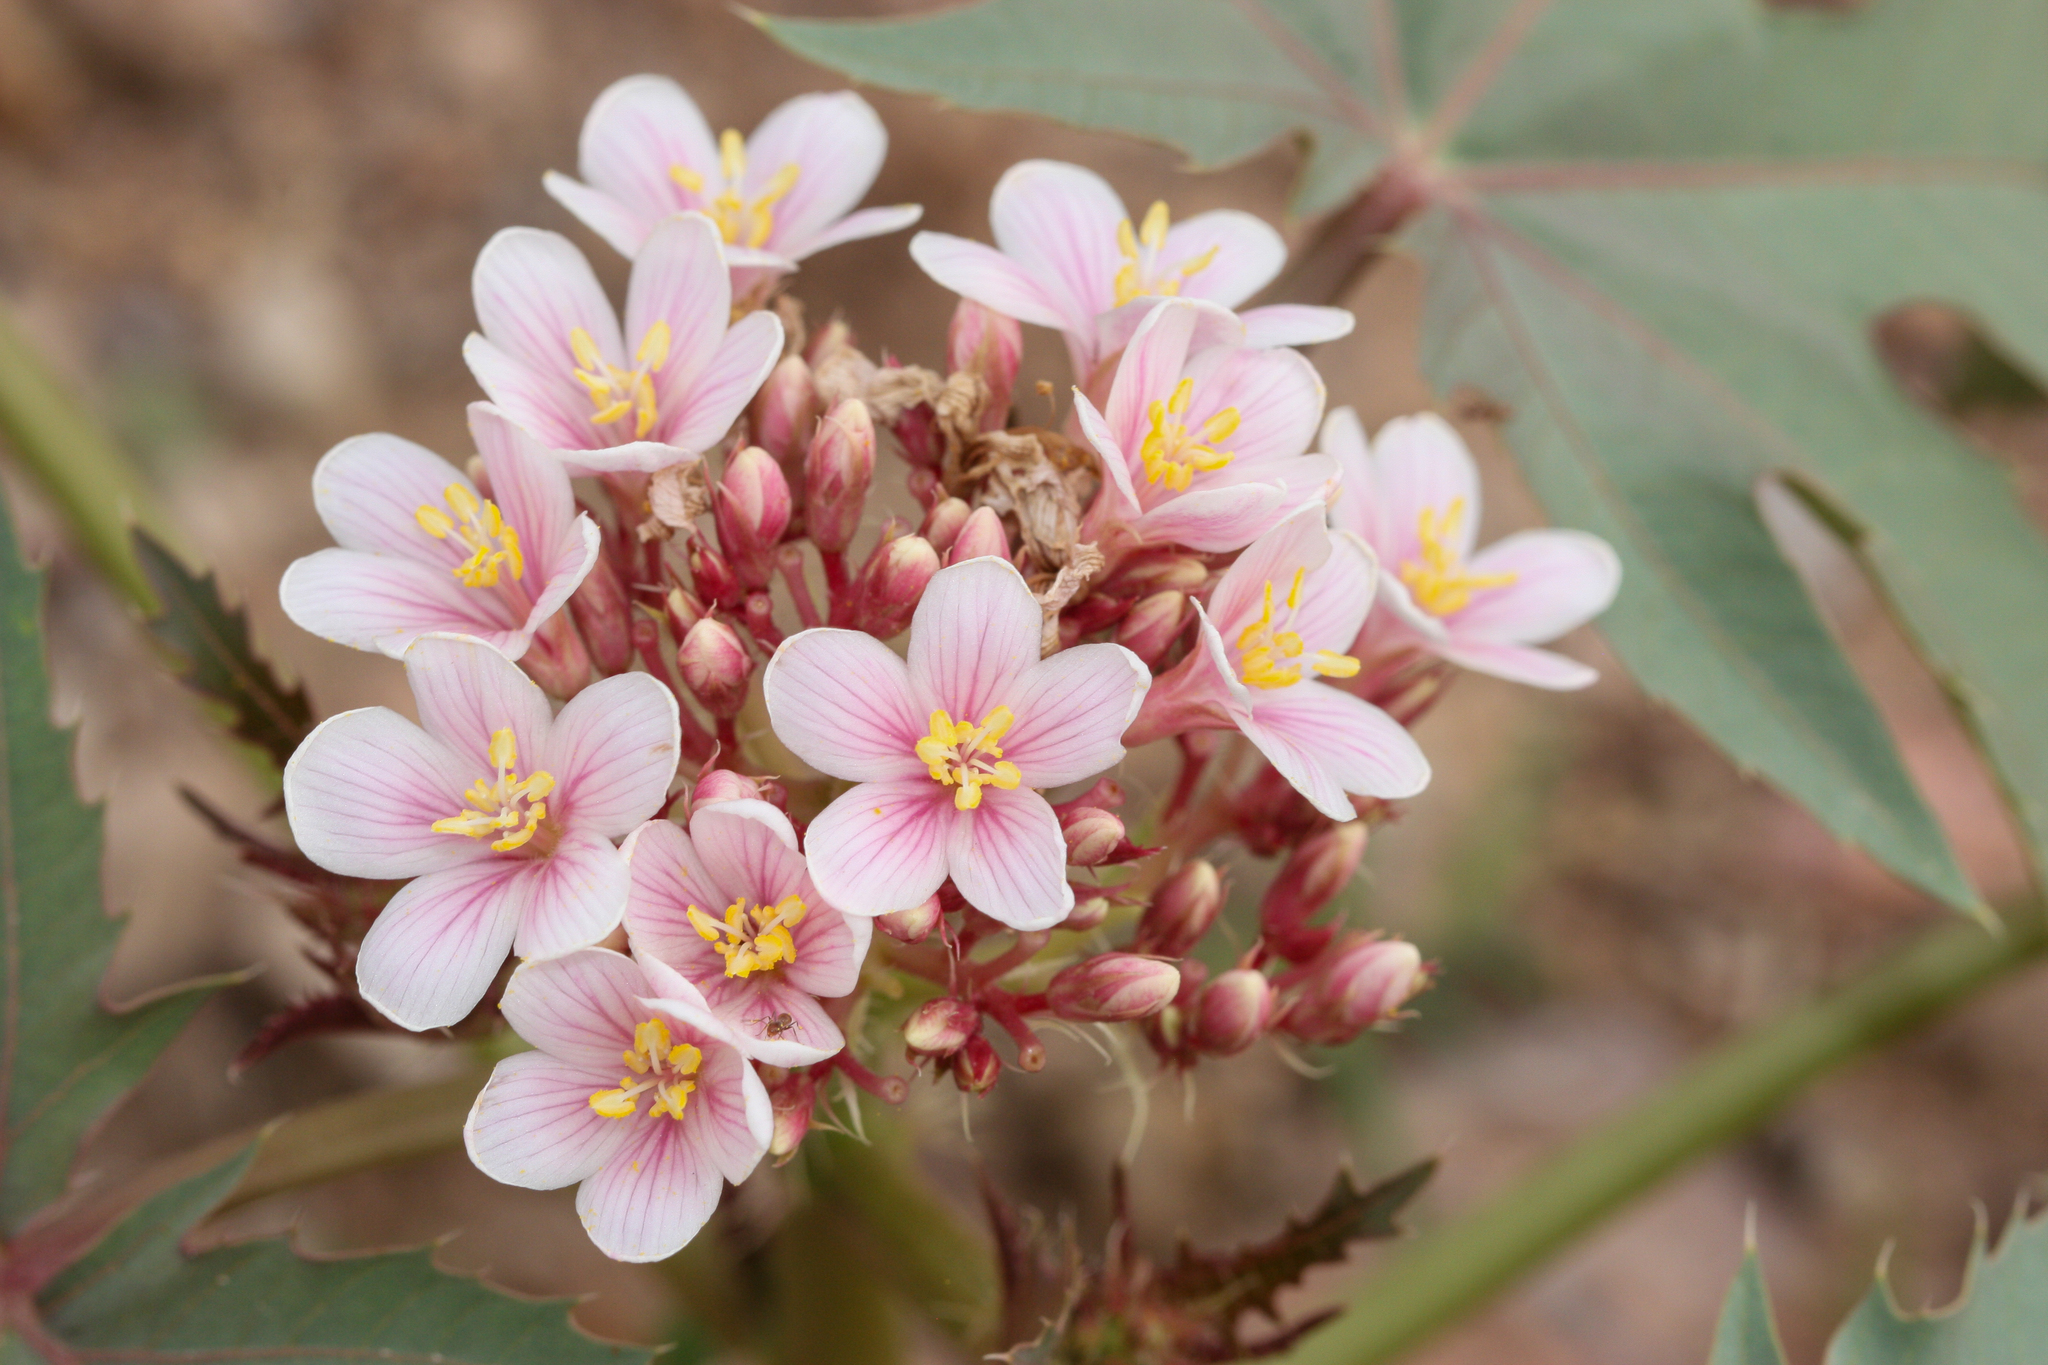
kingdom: Plantae
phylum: Tracheophyta
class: Magnoliopsida
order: Malpighiales
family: Euphorbiaceae
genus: Jatropha
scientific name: Jatropha macrorhiza
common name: Ragged nettlespurge
